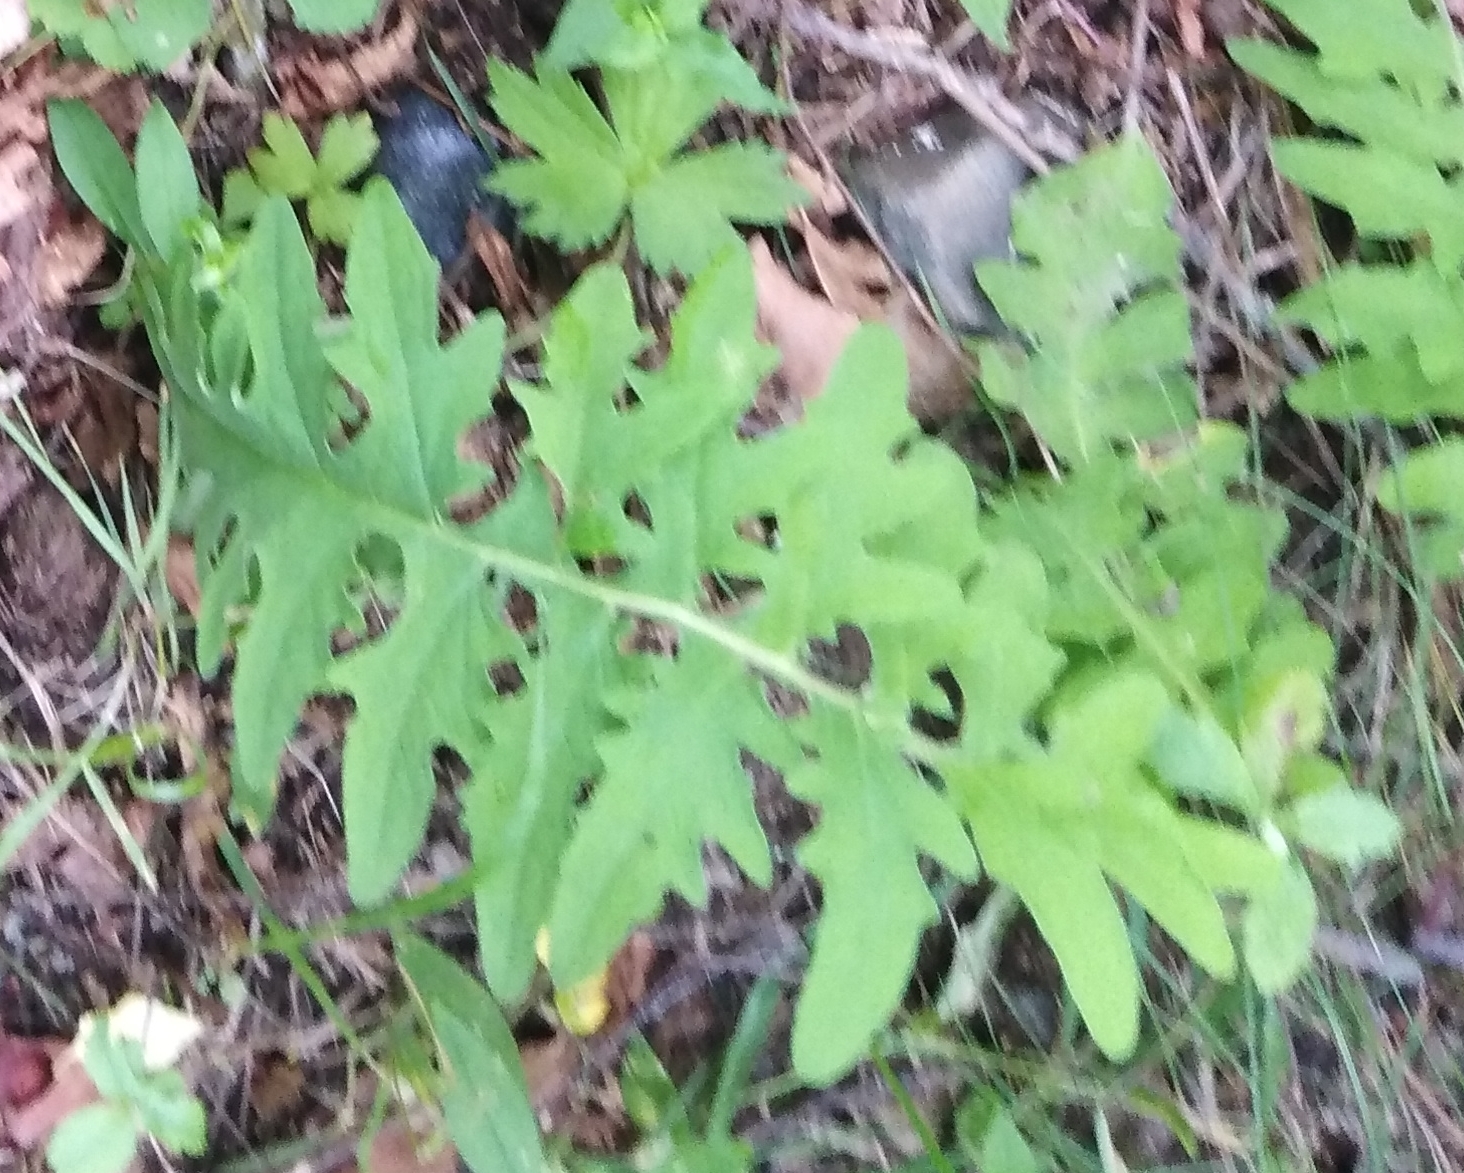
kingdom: Plantae
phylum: Tracheophyta
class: Magnoliopsida
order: Asterales
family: Asteraceae
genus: Saussurea
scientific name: Saussurea neopulchella
